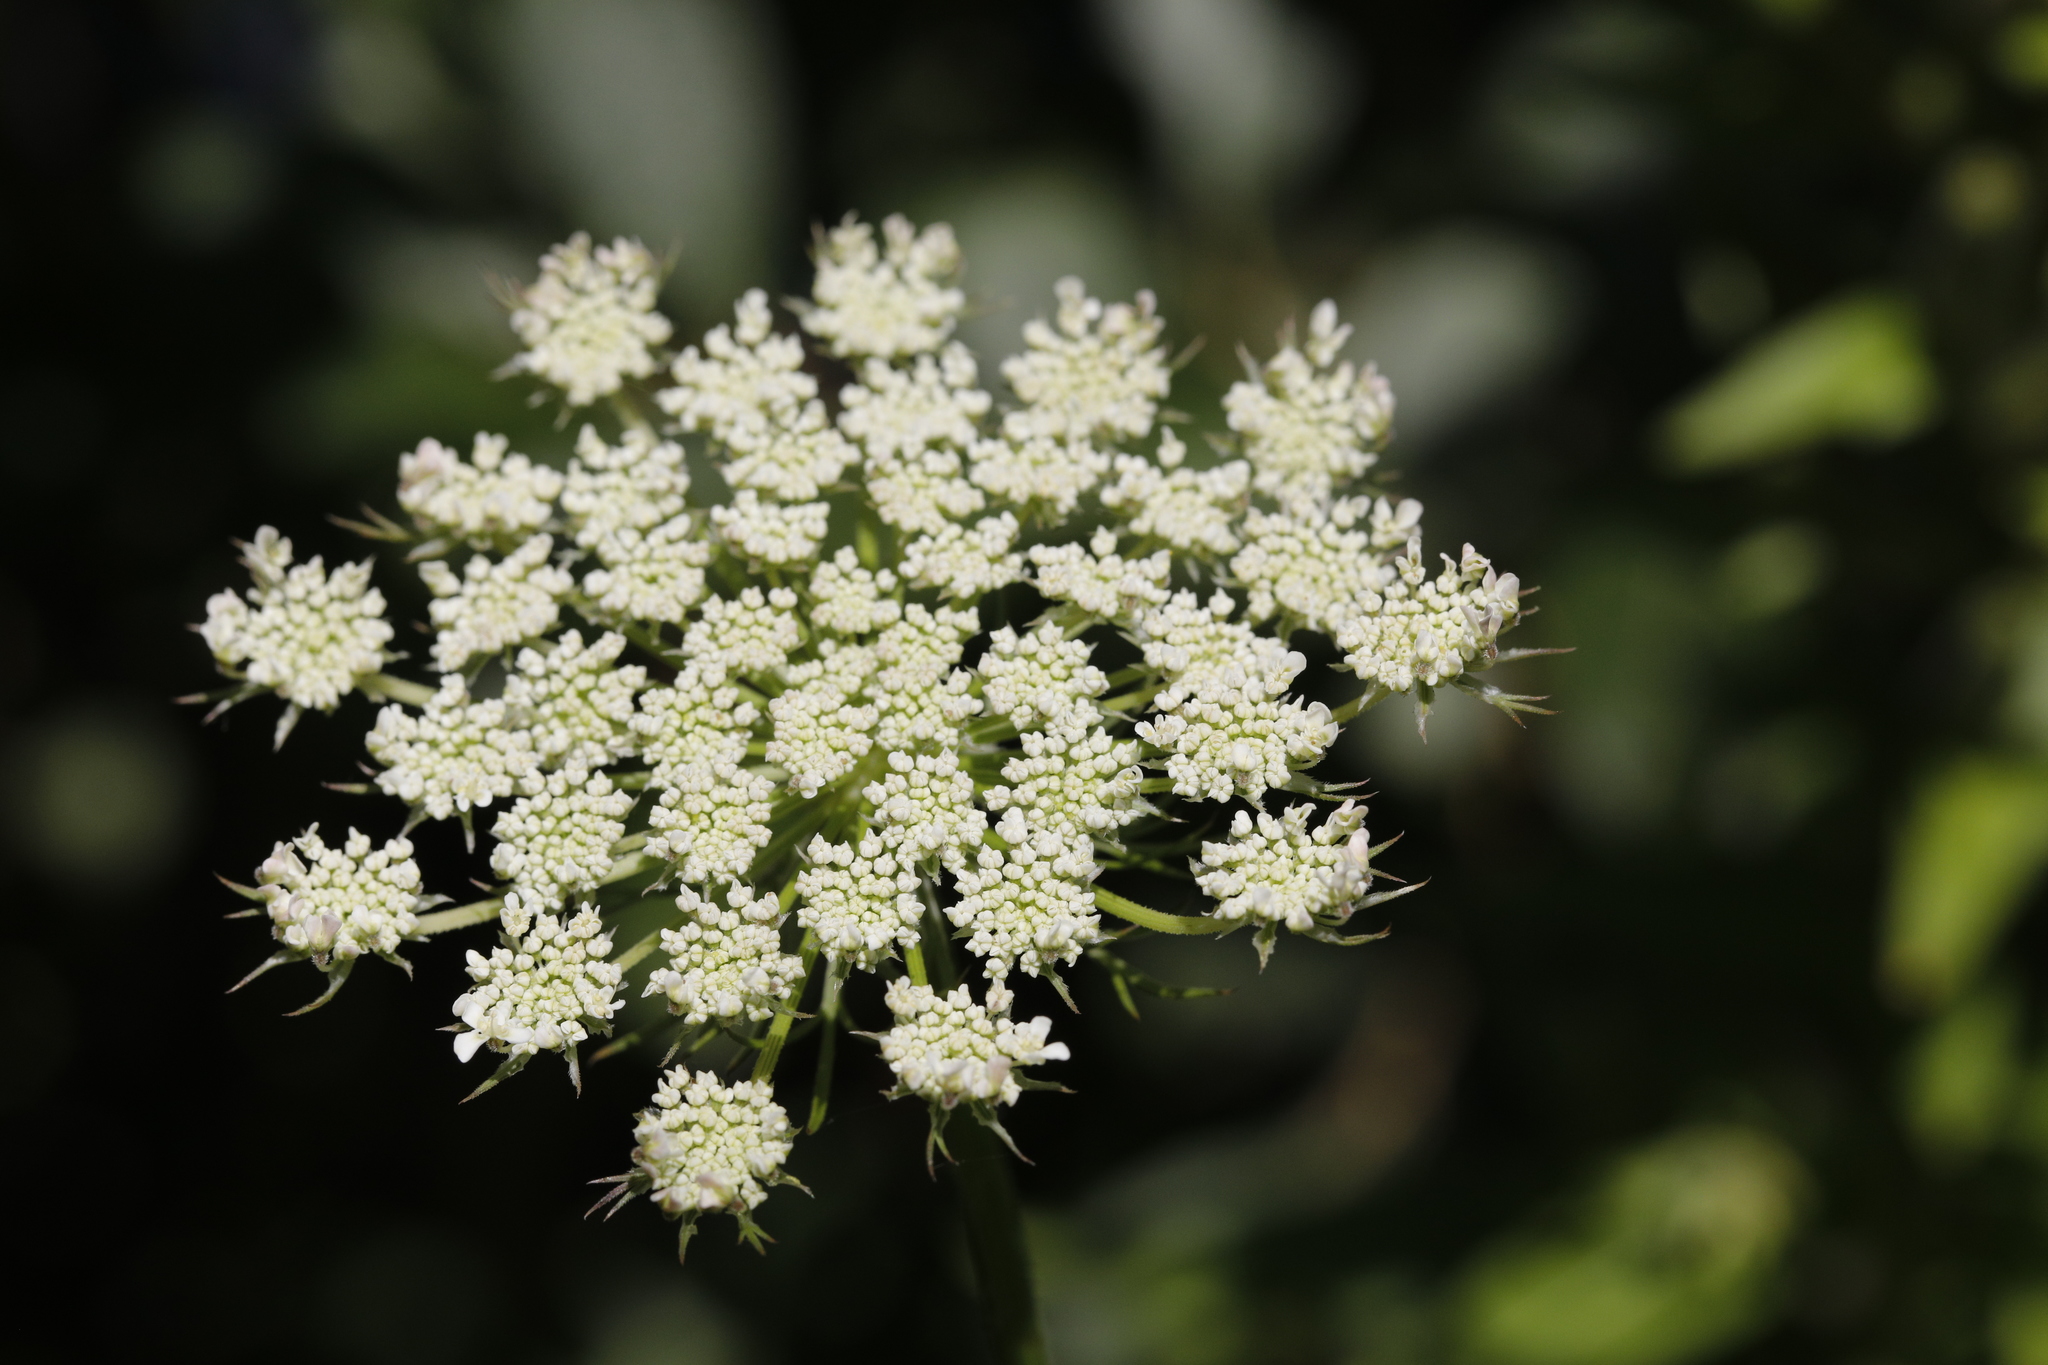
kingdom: Plantae
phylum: Tracheophyta
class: Magnoliopsida
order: Apiales
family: Apiaceae
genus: Daucus
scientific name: Daucus carota
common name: Wild carrot
